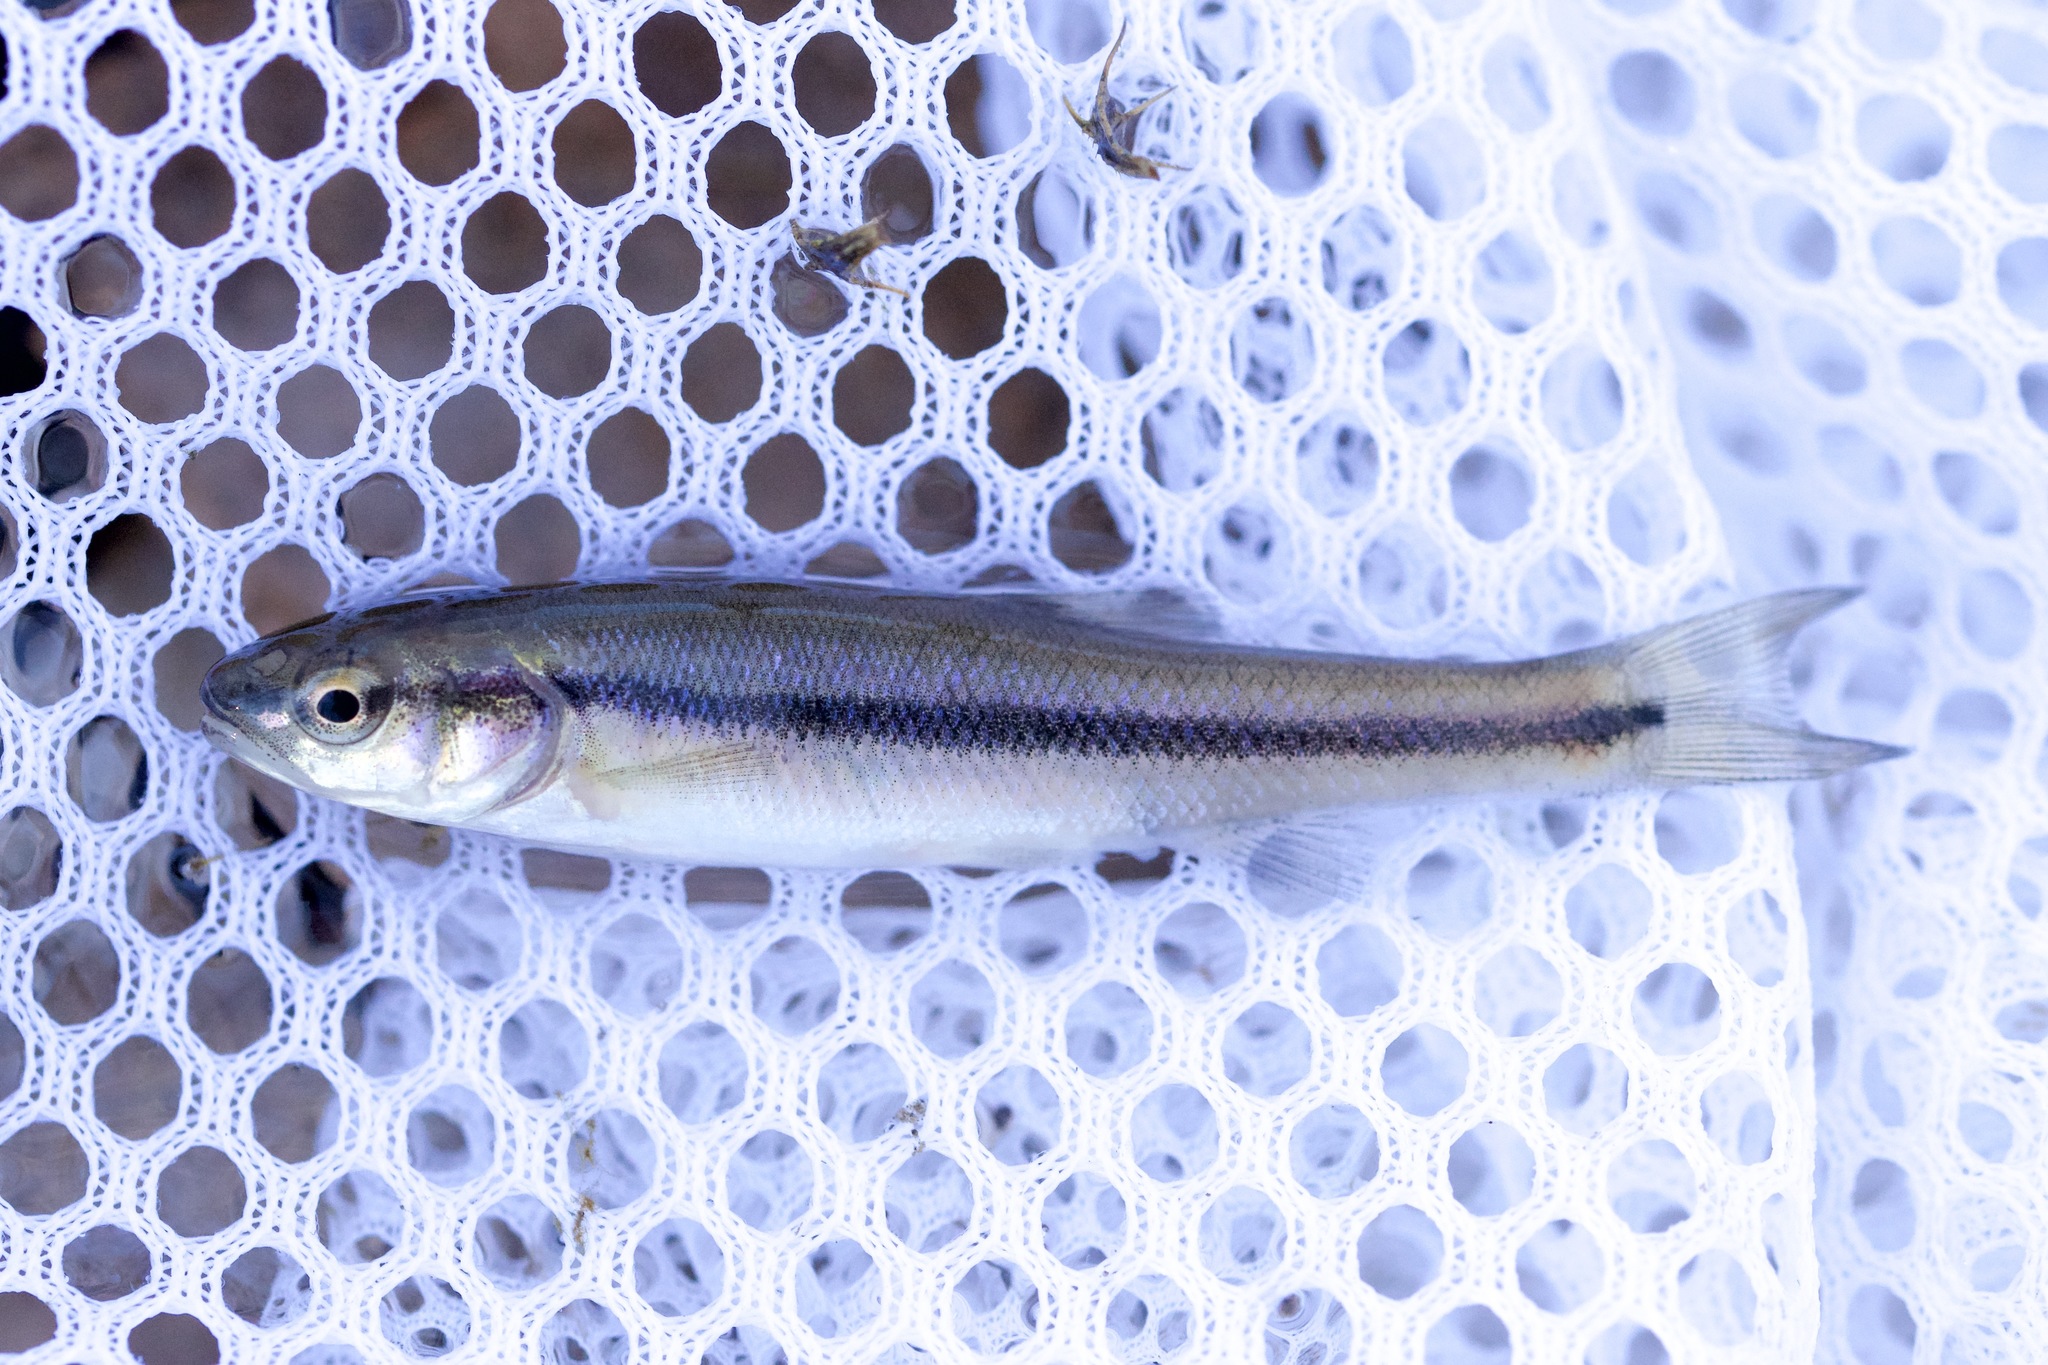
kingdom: Animalia
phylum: Chordata
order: Cypriniformes
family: Cyprinidae
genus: Semotilus
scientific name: Semotilus atromaculatus
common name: Creek chub
